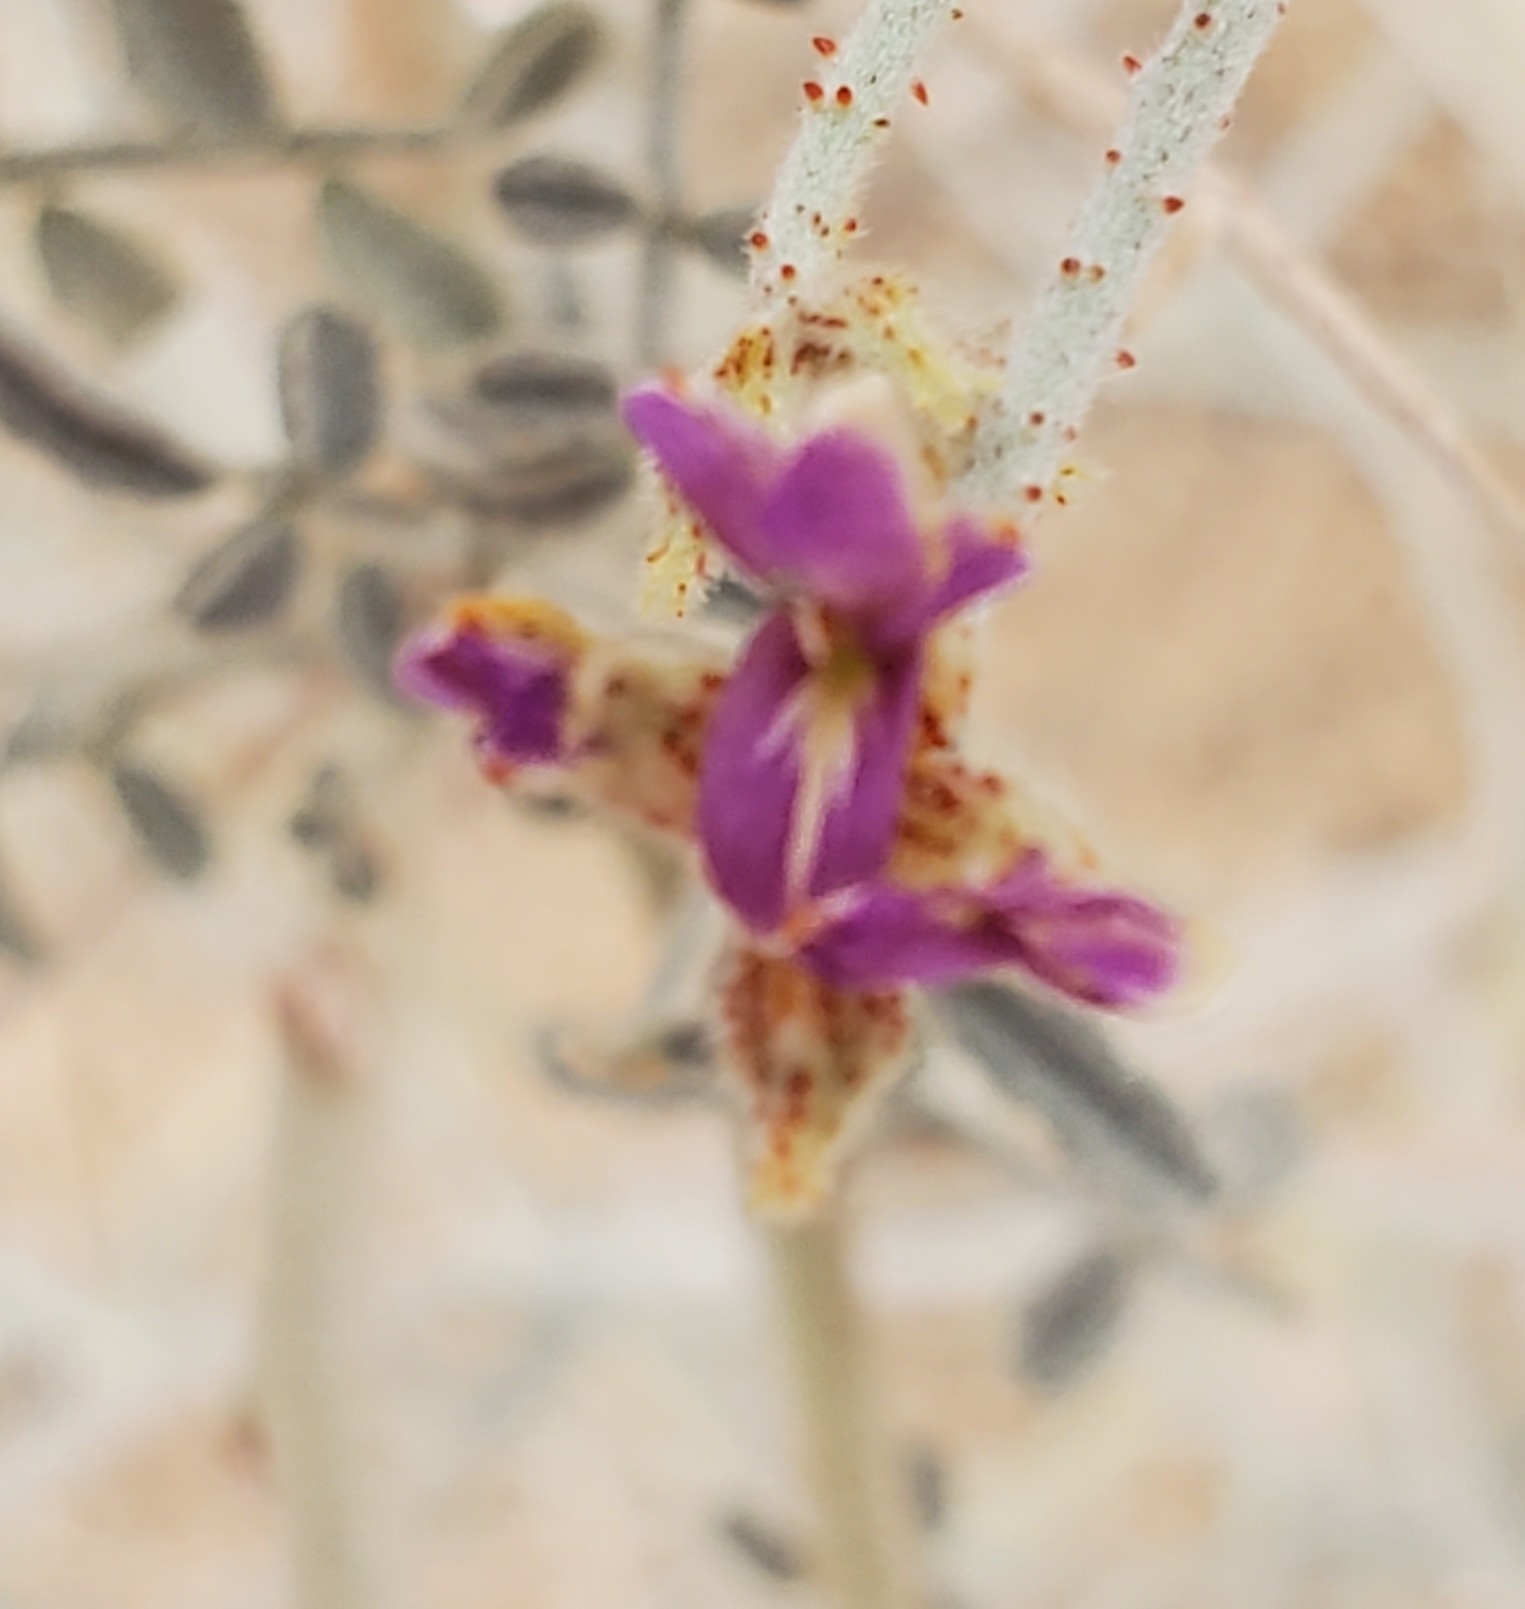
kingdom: Plantae
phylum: Tracheophyta
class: Magnoliopsida
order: Fabales
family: Fabaceae
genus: Psorothamnus
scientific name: Psorothamnus emoryi
